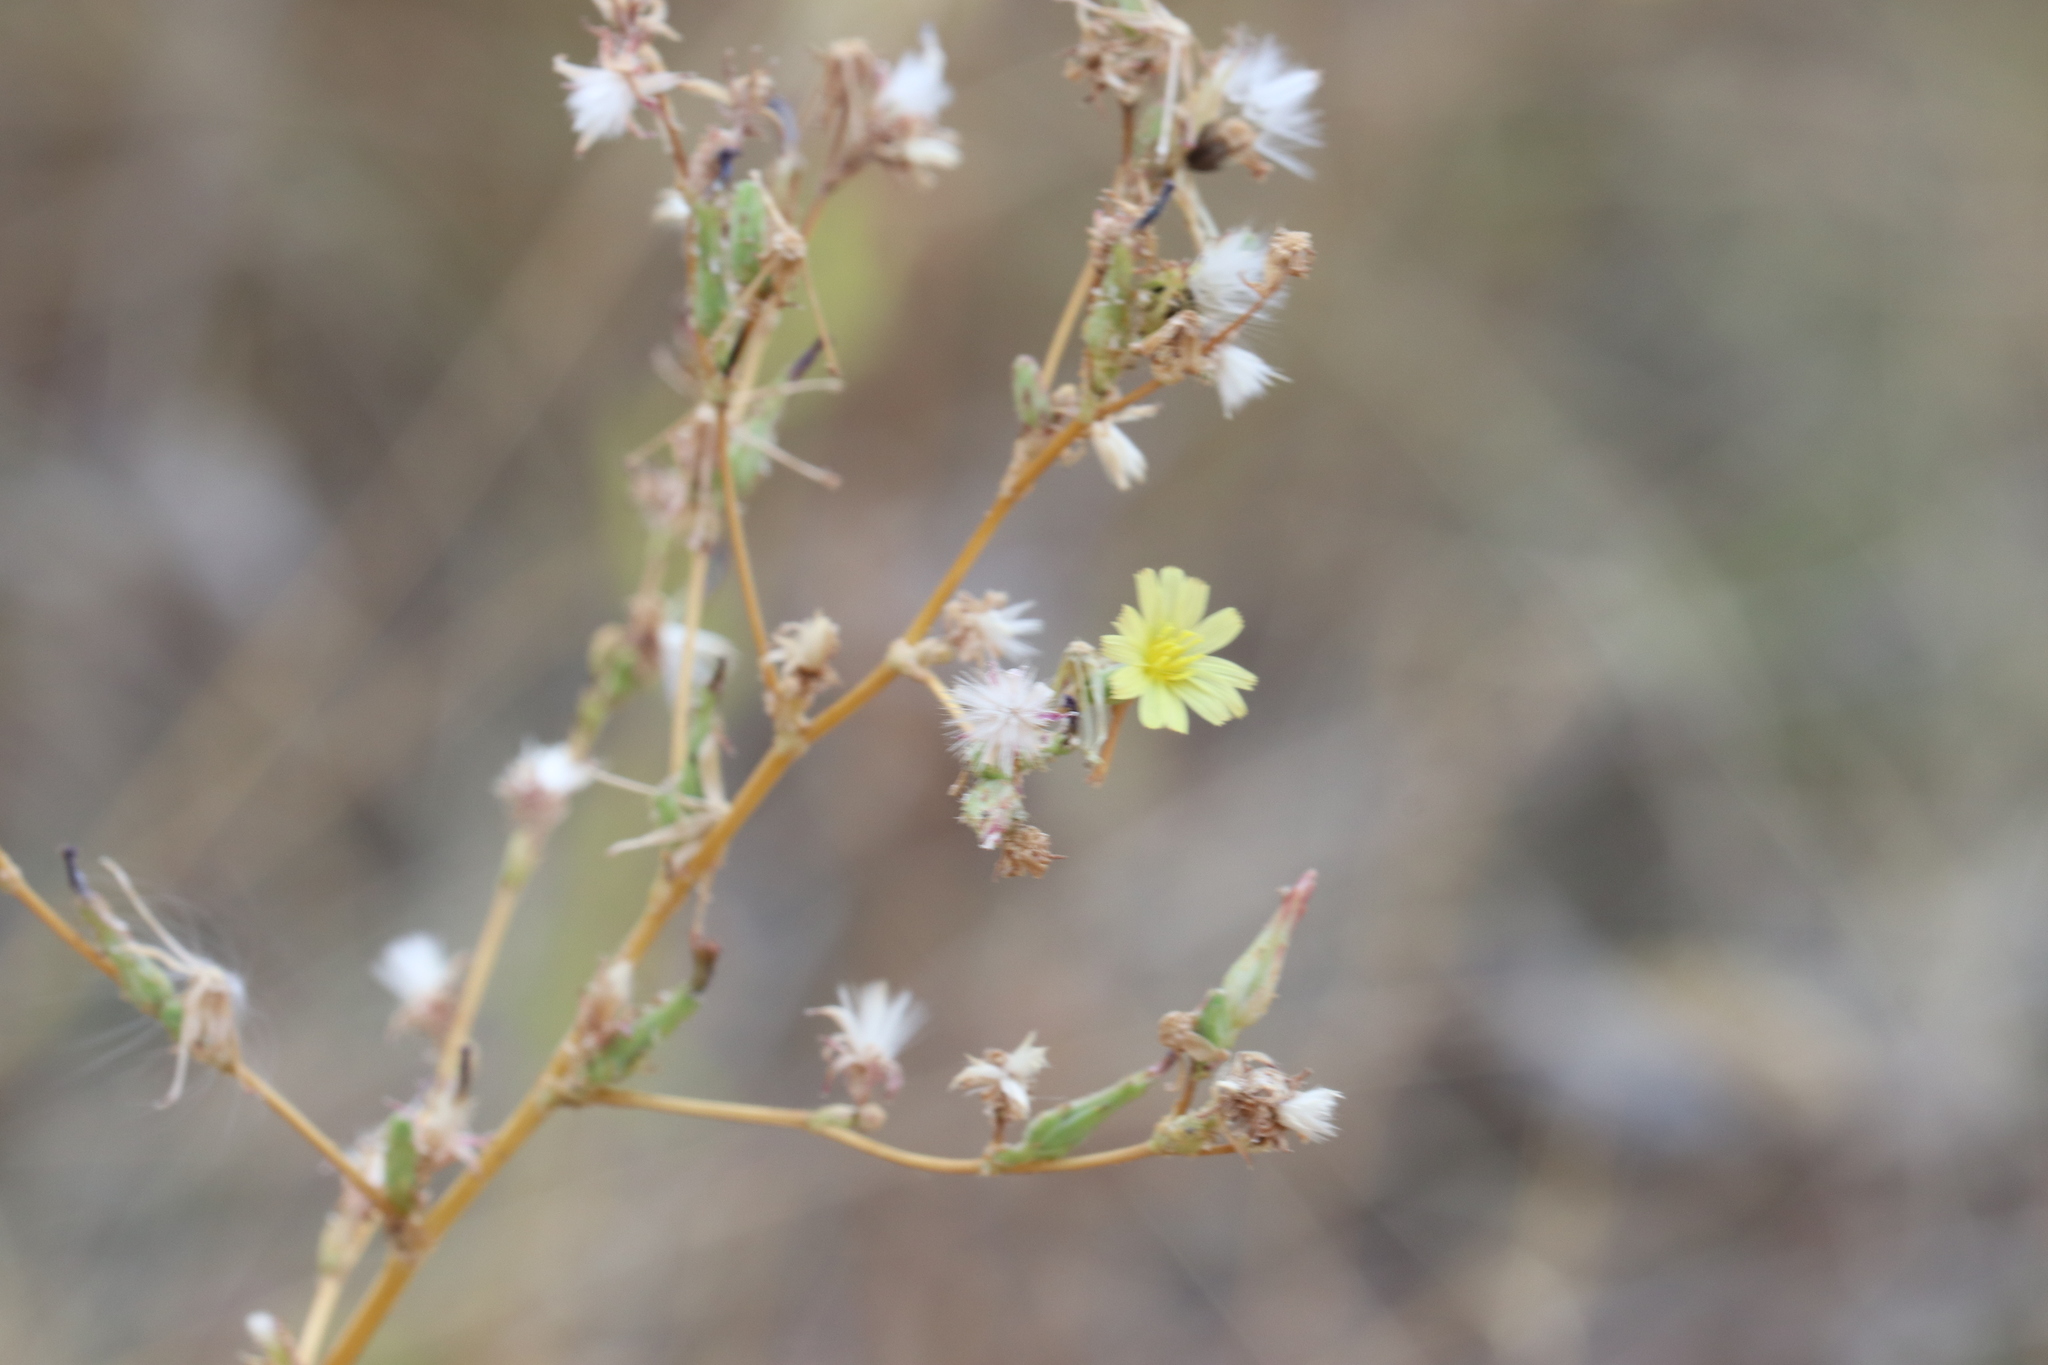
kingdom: Plantae
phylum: Tracheophyta
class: Magnoliopsida
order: Asterales
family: Asteraceae
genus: Lactuca
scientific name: Lactuca serriola
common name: Prickly lettuce
